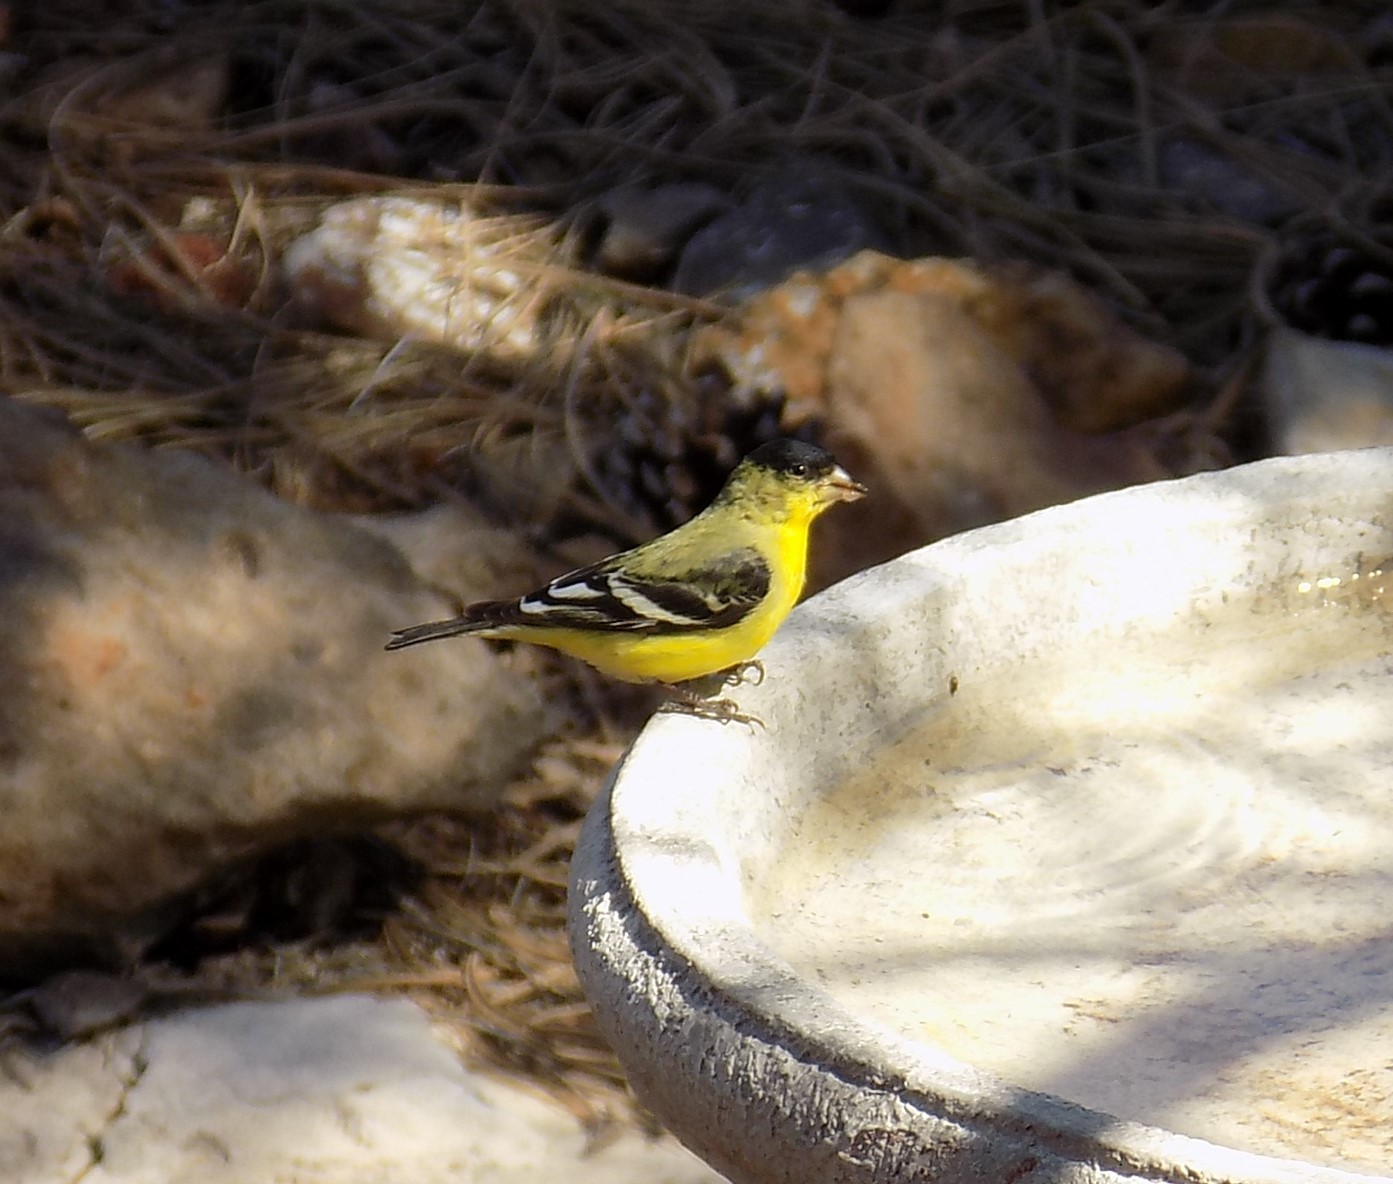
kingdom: Animalia
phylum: Chordata
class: Aves
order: Passeriformes
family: Fringillidae
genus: Spinus
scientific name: Spinus psaltria
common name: Lesser goldfinch
